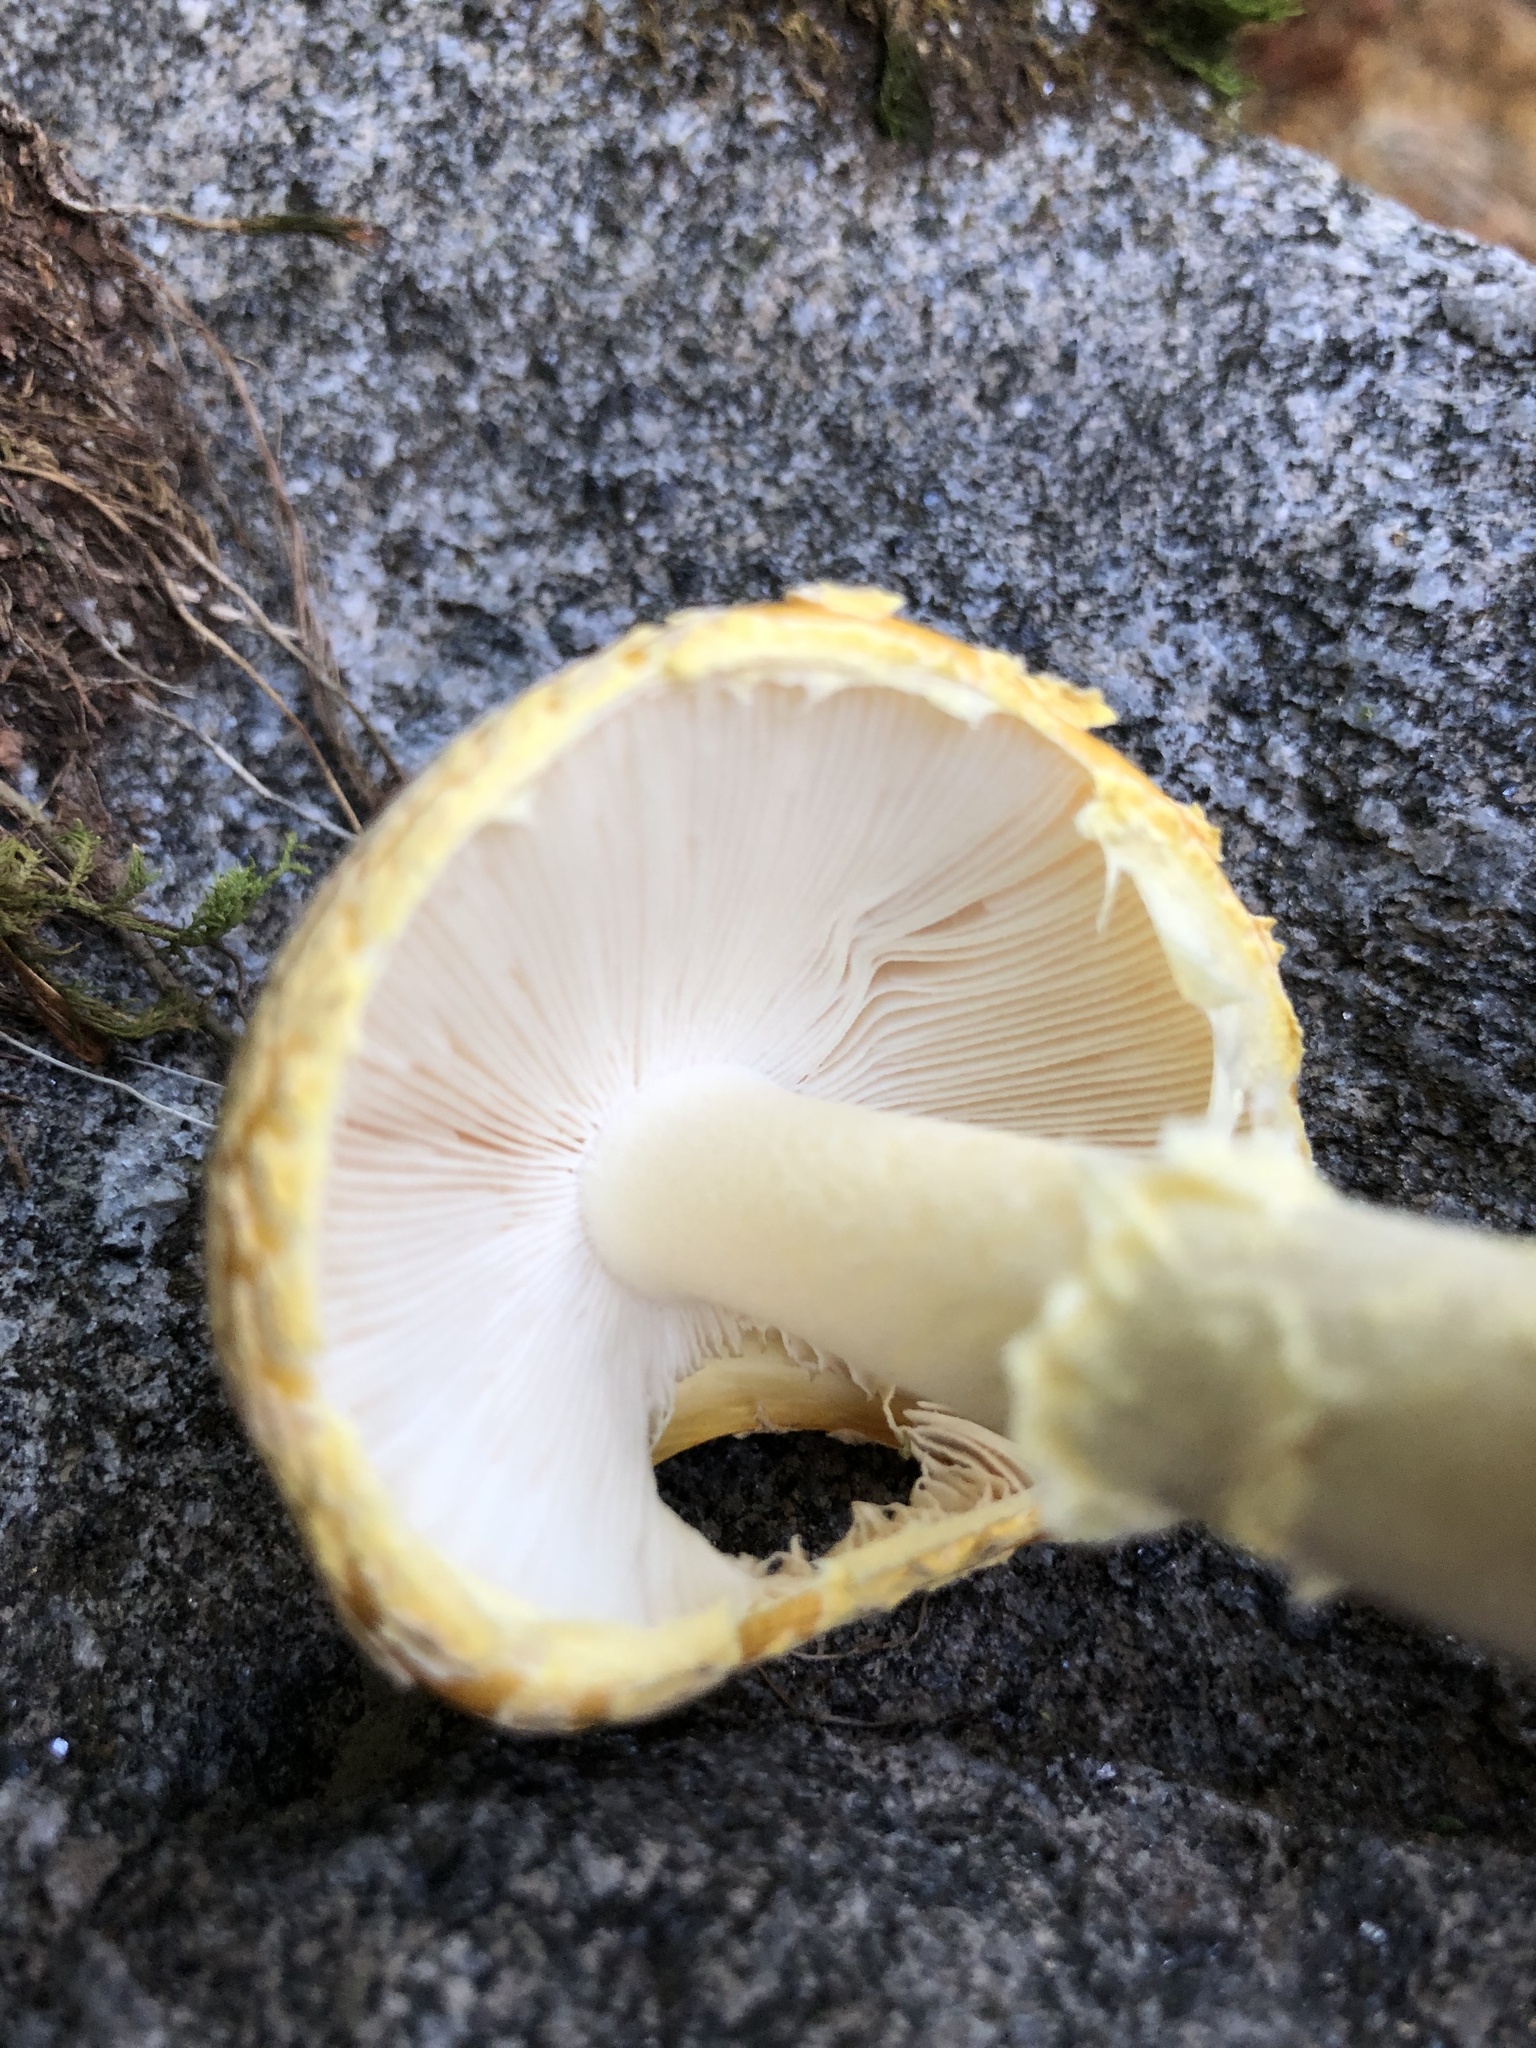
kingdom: Fungi
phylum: Basidiomycota
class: Agaricomycetes
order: Agaricales
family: Amanitaceae
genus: Amanita
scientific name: Amanita muscaria
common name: Fly agaric
